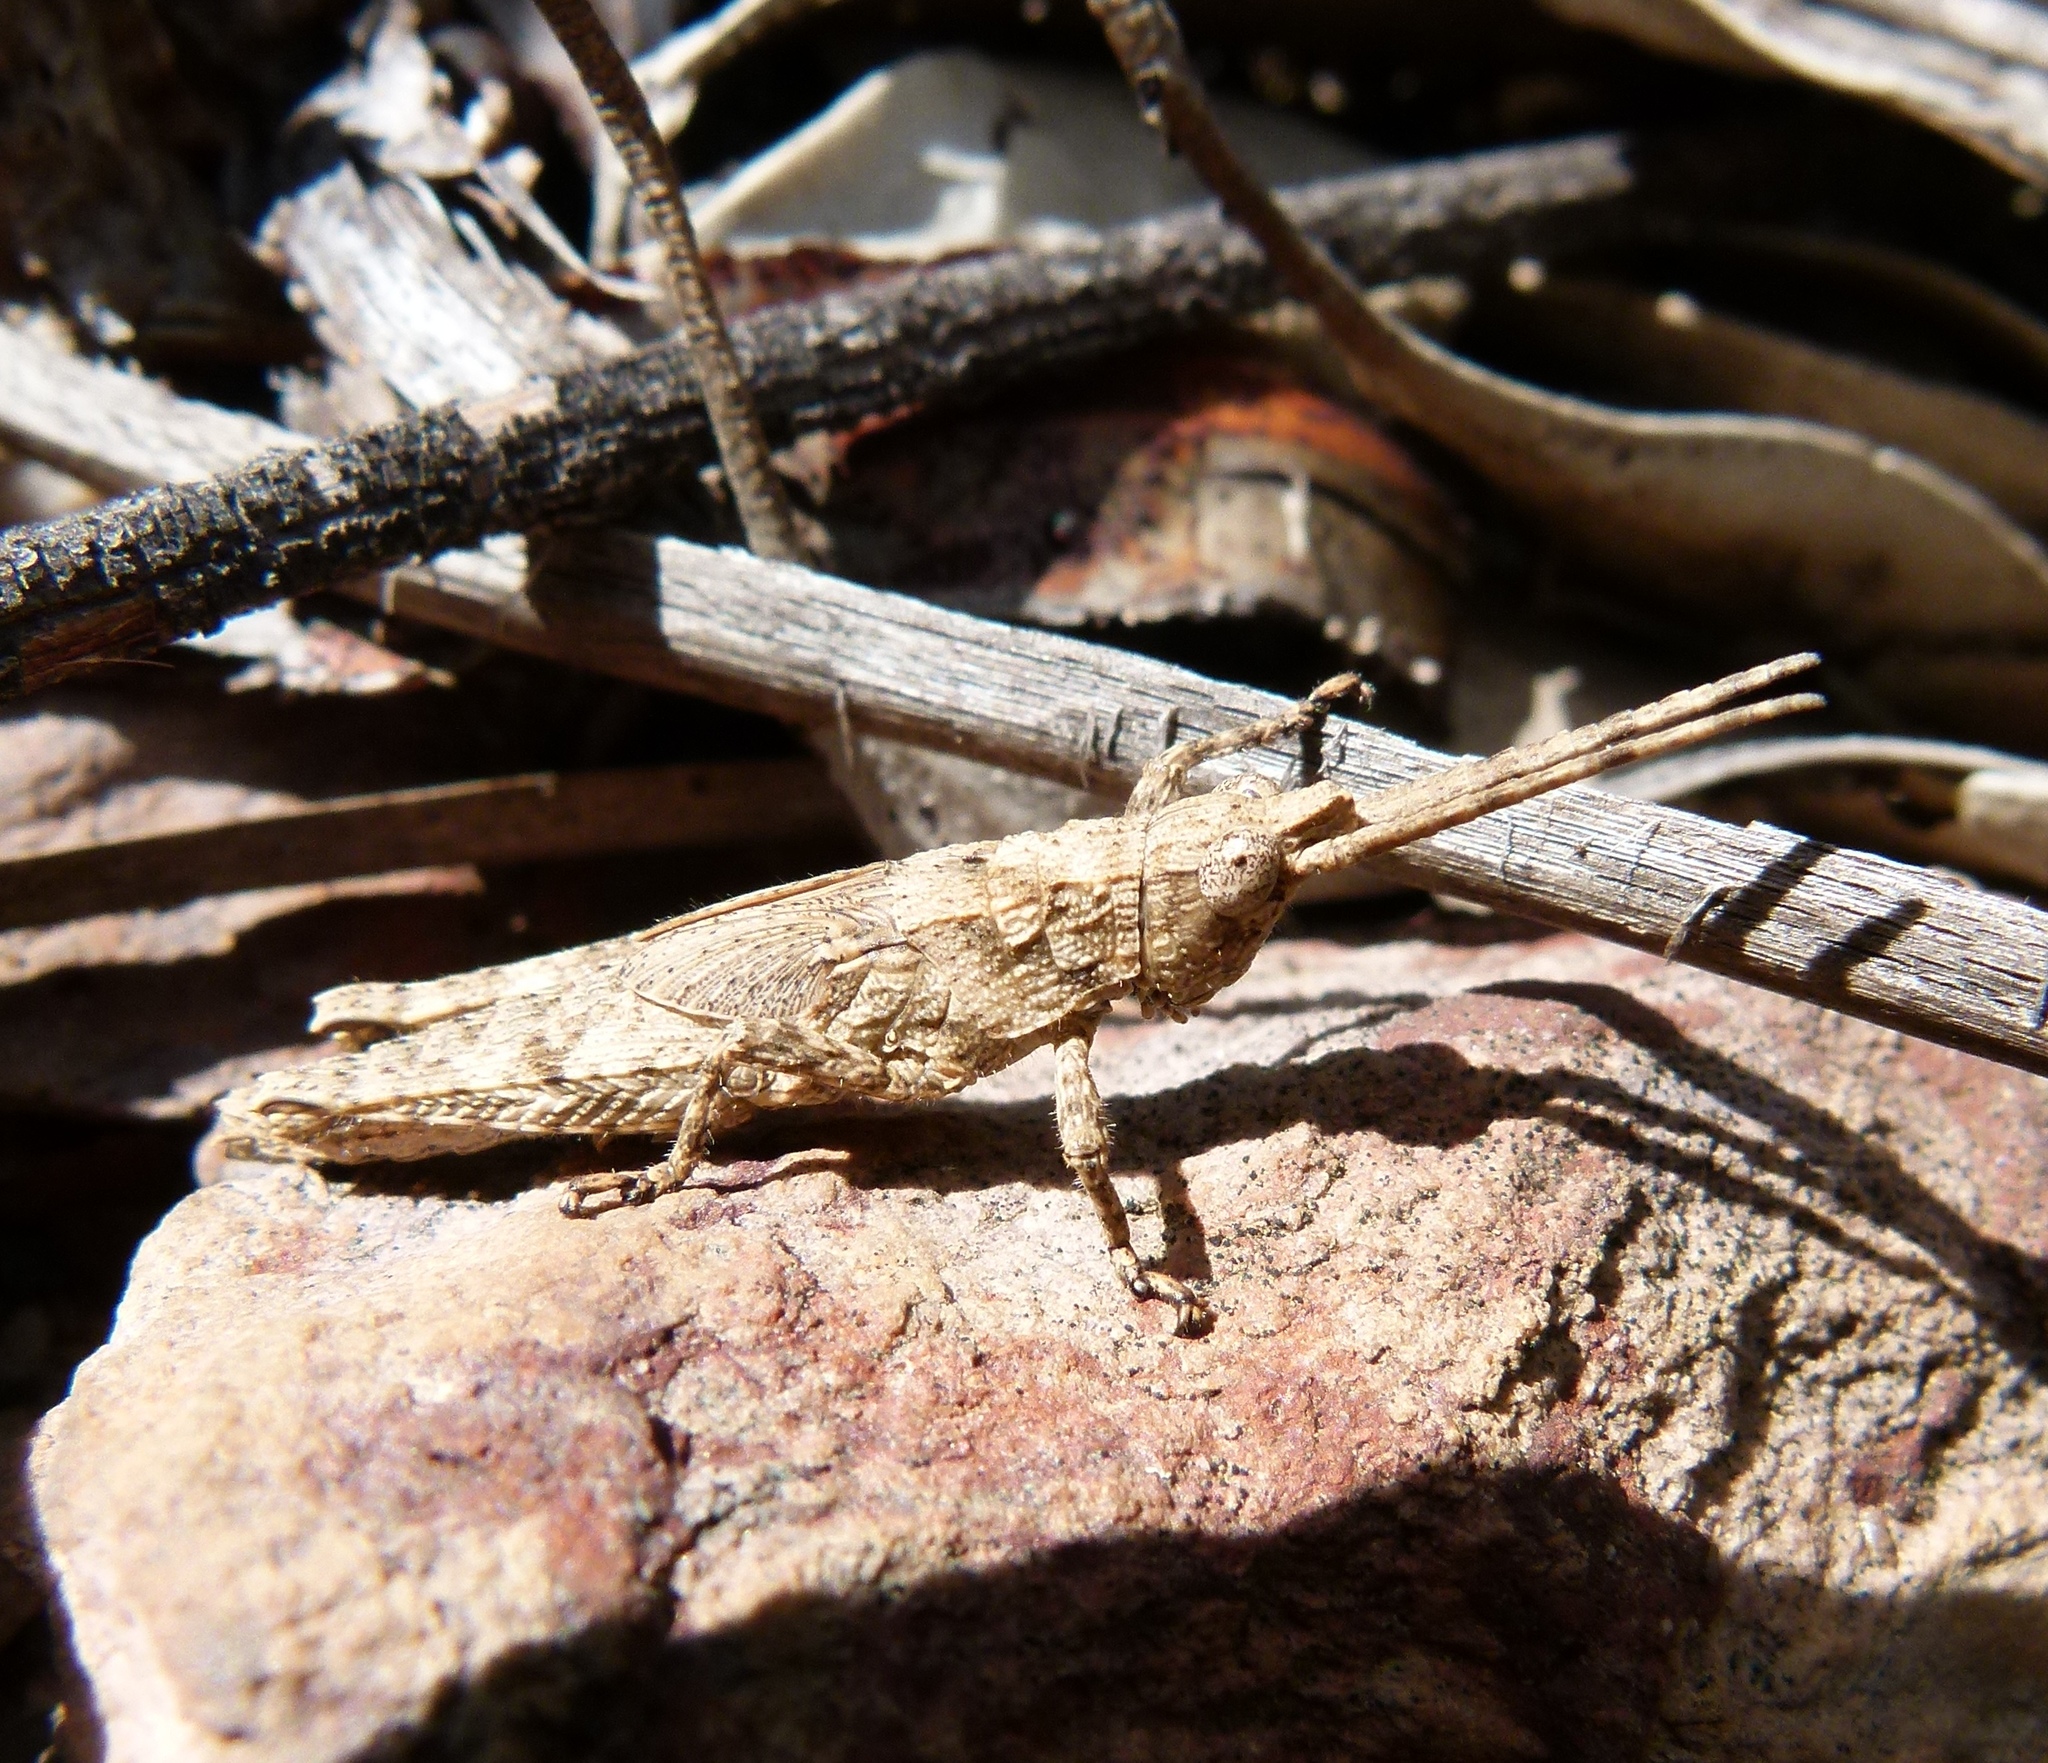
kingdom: Animalia
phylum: Arthropoda
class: Insecta
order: Orthoptera
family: Acrididae
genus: Coryphistes
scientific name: Coryphistes ruricola
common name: Bark-mimicking grasshopper
